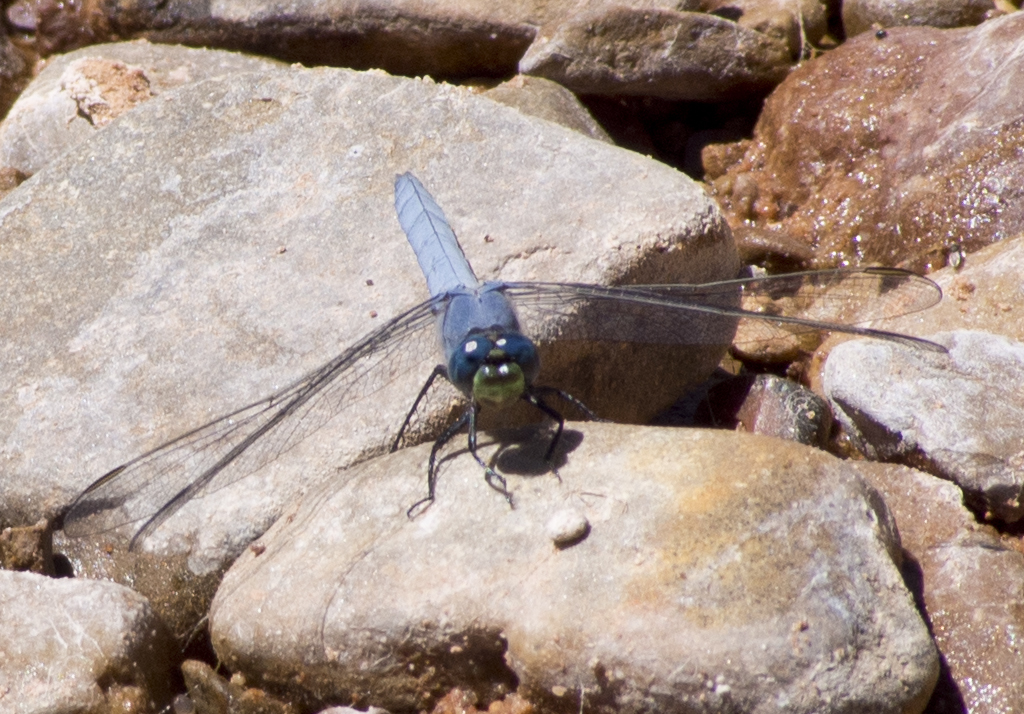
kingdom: Animalia
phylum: Arthropoda
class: Insecta
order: Odonata
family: Libellulidae
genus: Erythemis
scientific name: Erythemis collocata
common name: Western pondhawk
